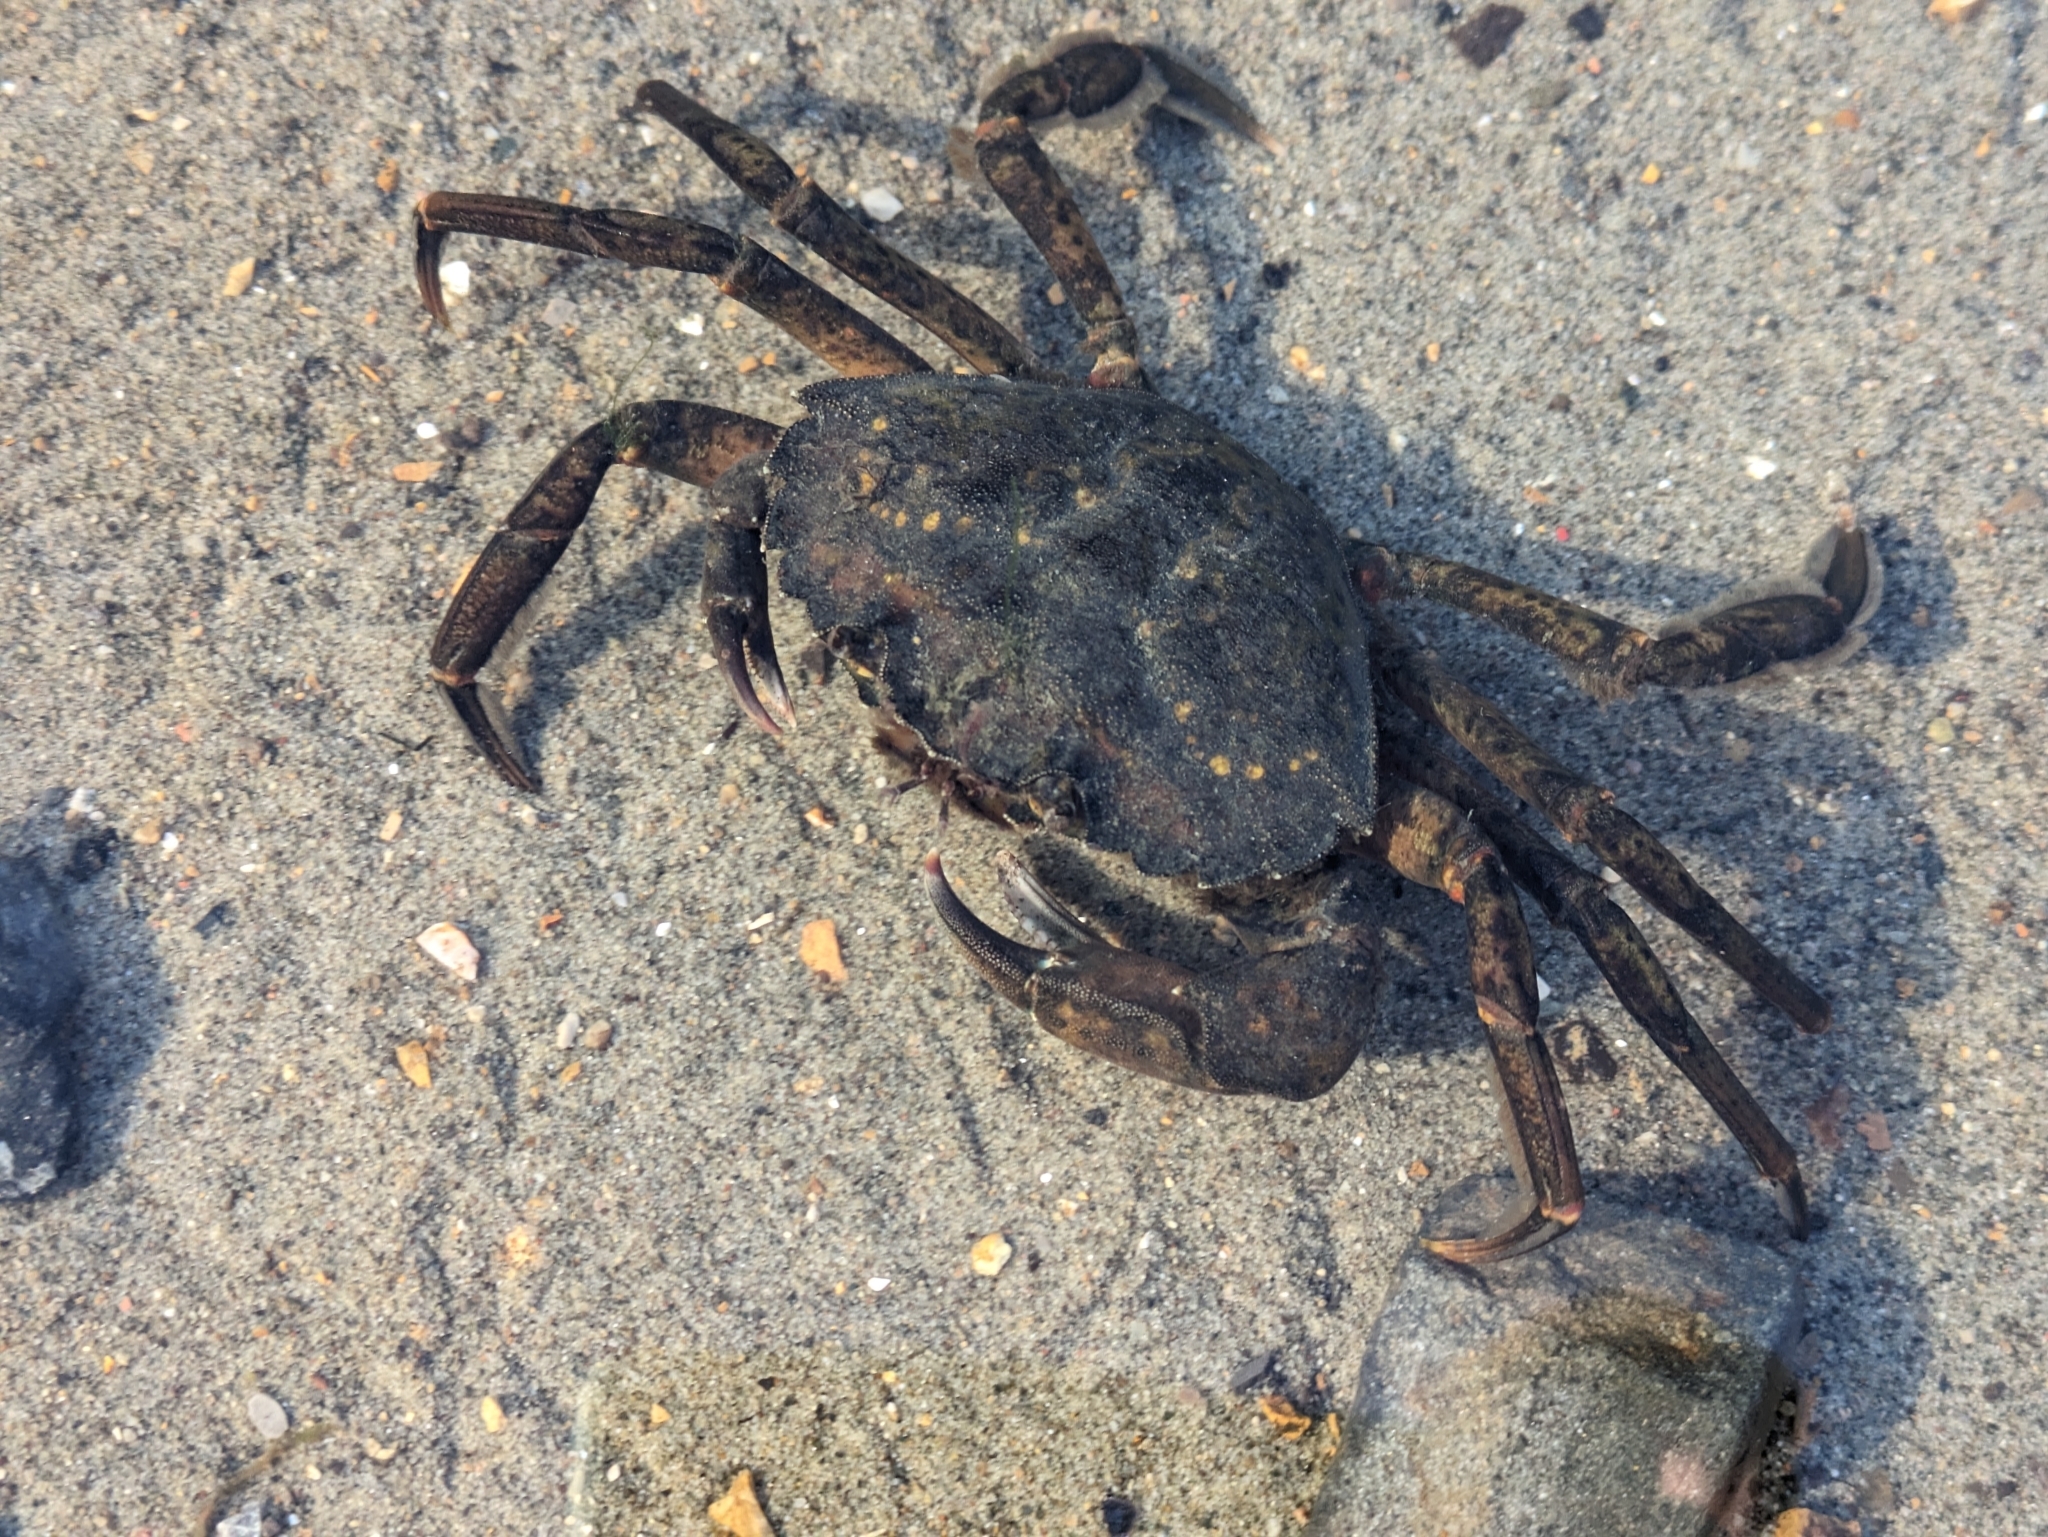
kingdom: Animalia
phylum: Arthropoda
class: Malacostraca
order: Decapoda
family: Carcinidae
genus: Carcinus
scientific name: Carcinus maenas
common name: European green crab
